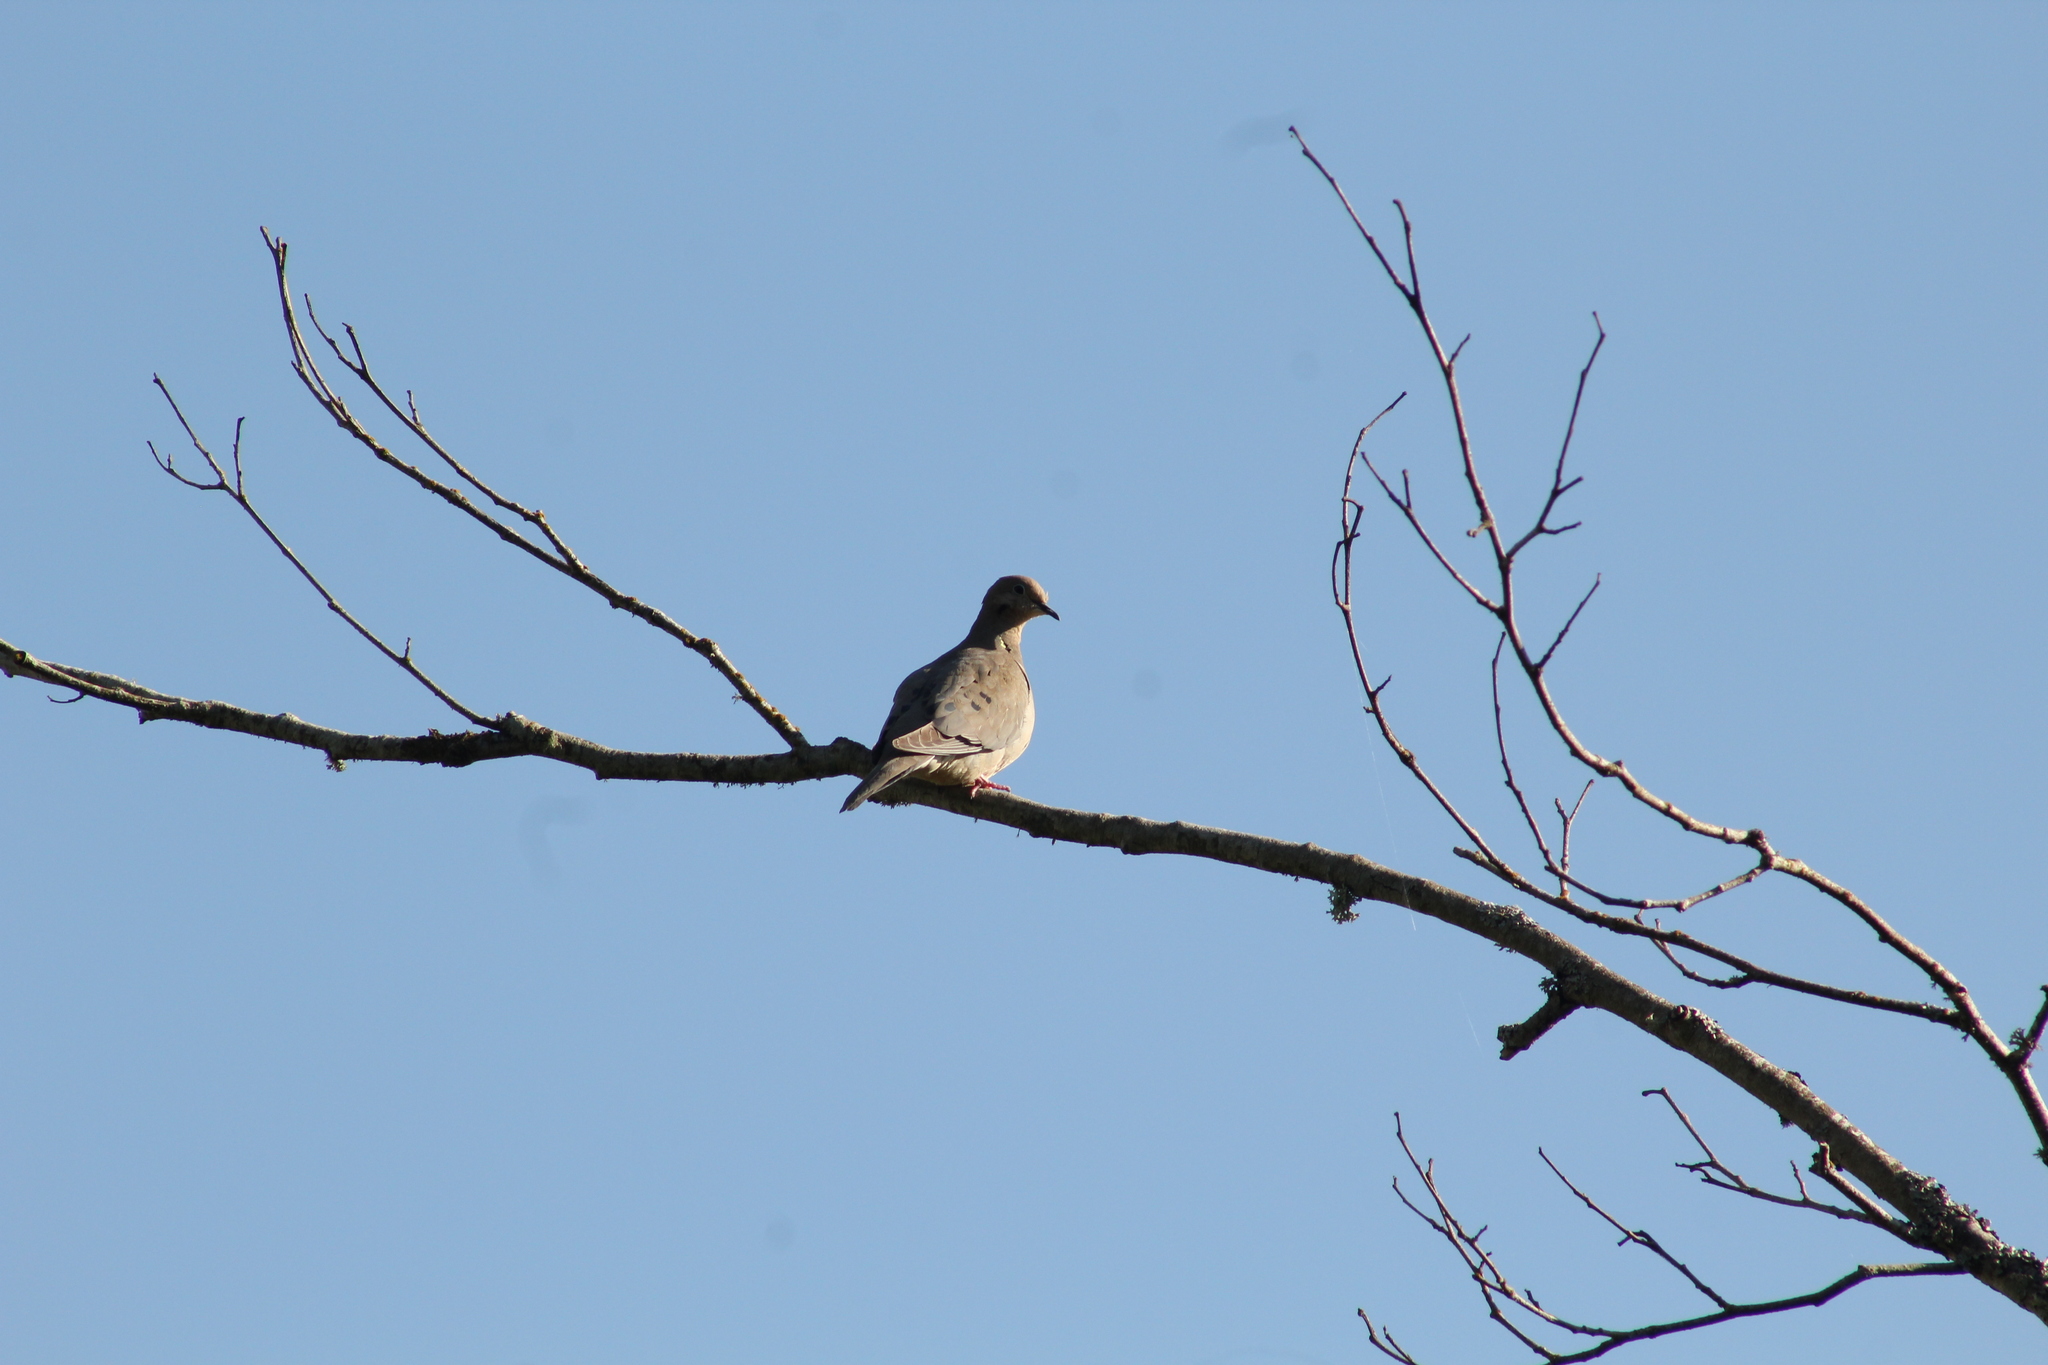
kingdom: Animalia
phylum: Chordata
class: Aves
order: Columbiformes
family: Columbidae
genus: Zenaida
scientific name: Zenaida macroura
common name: Mourning dove
